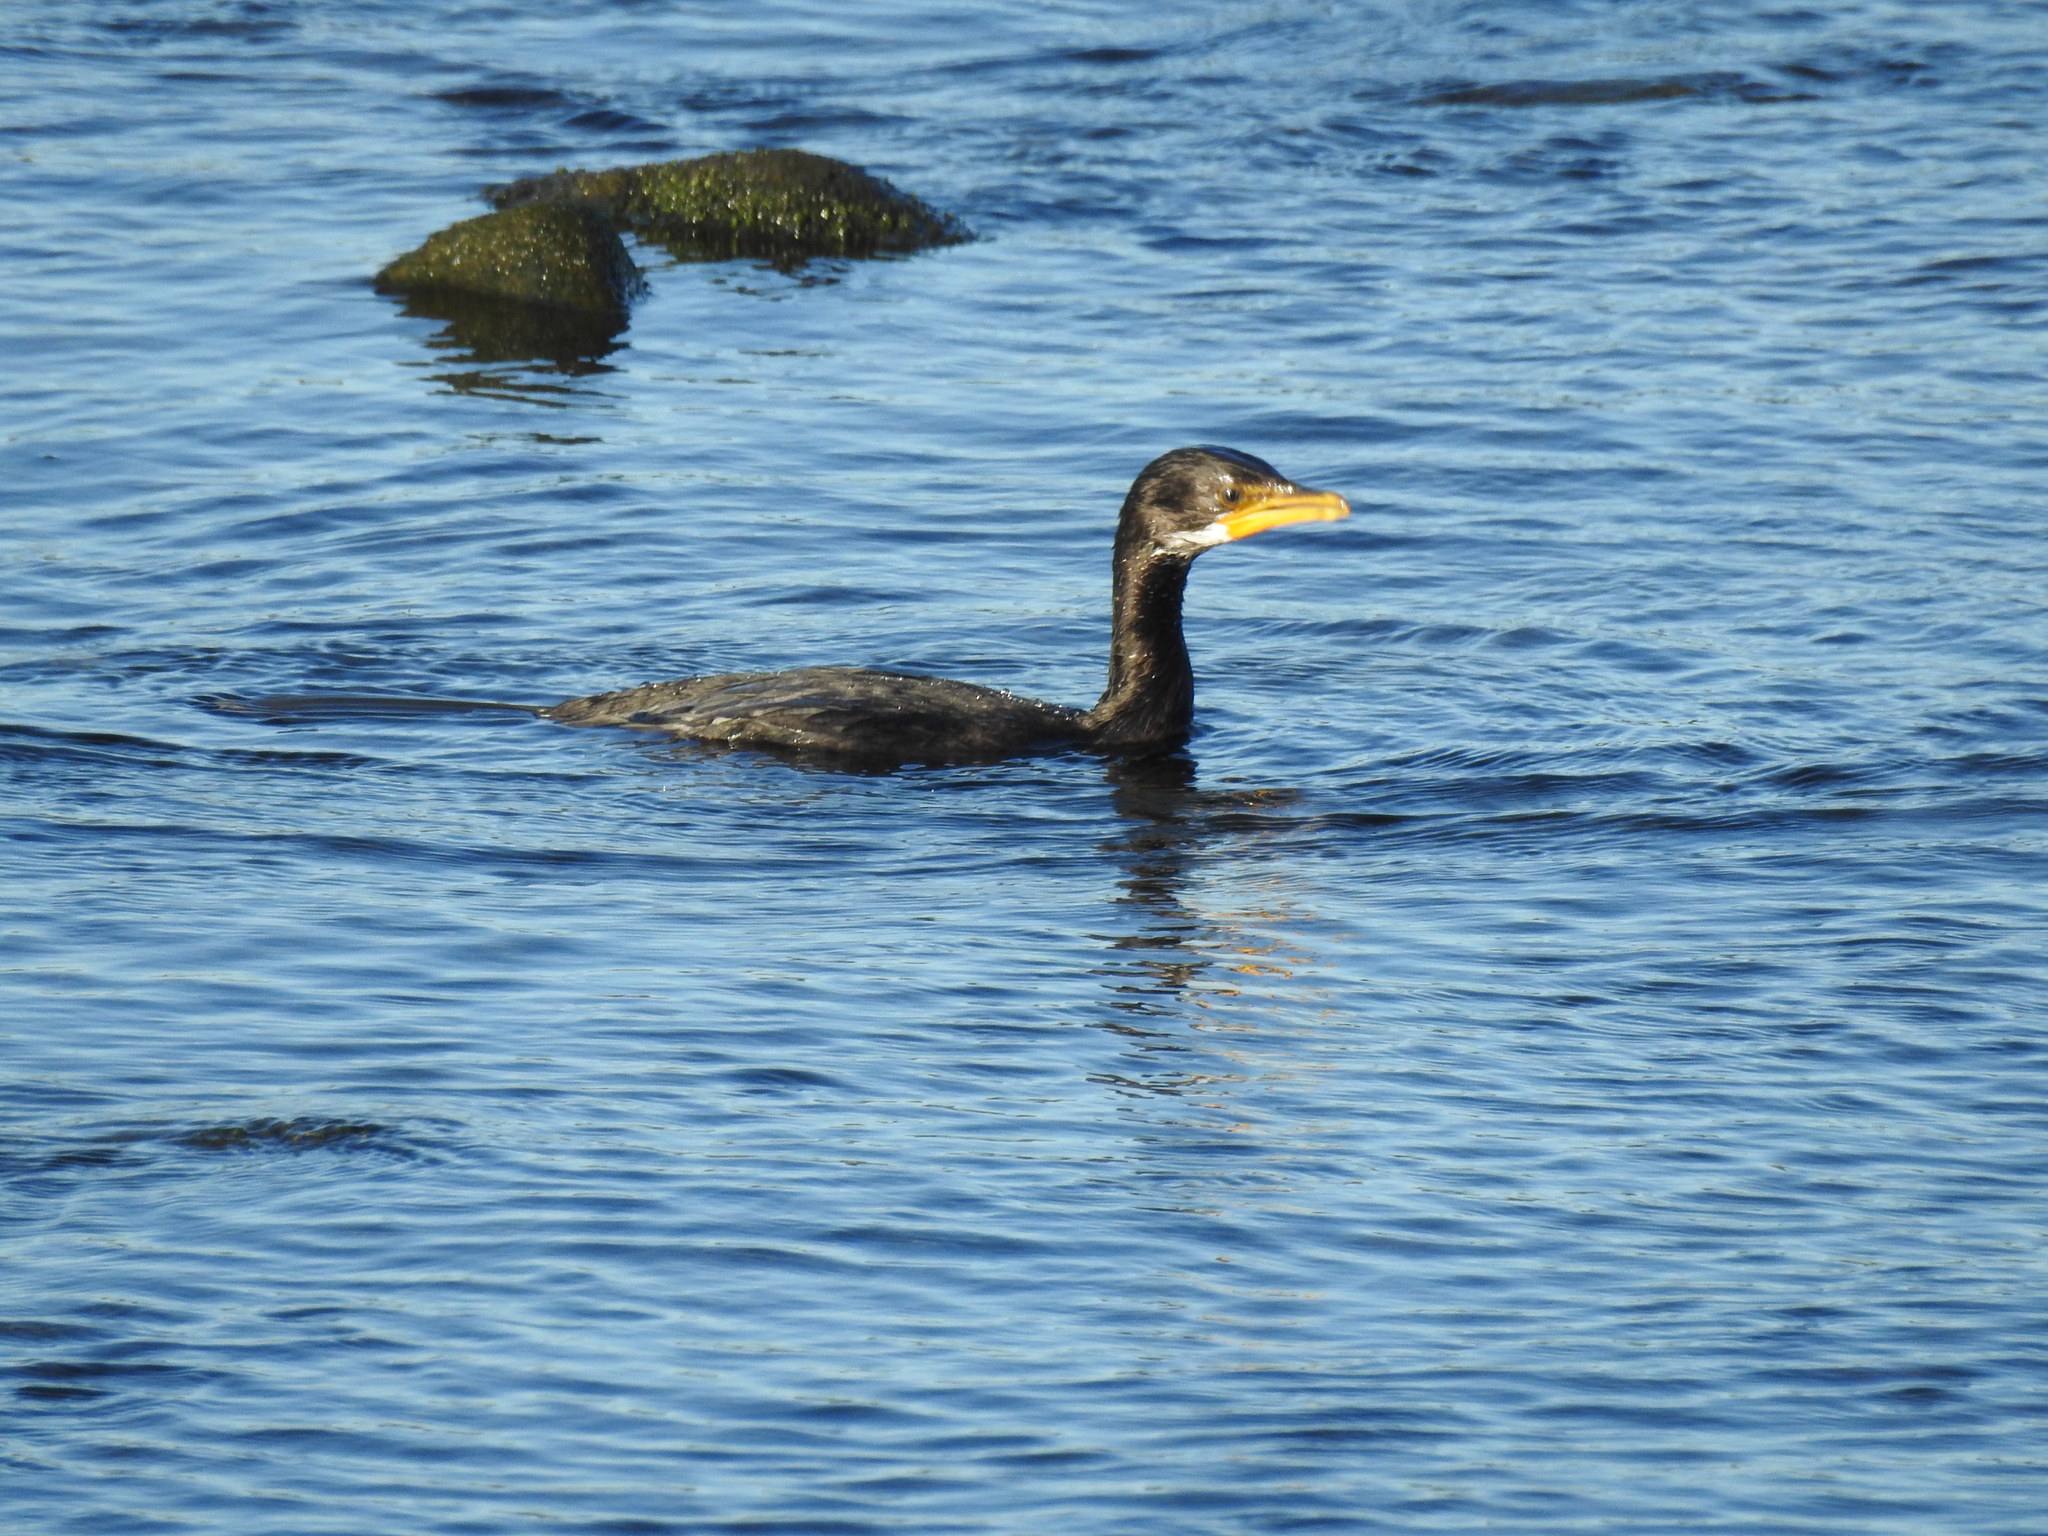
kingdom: Animalia
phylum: Chordata
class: Aves
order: Suliformes
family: Phalacrocoracidae
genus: Microcarbo
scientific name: Microcarbo melanoleucos
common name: Little pied cormorant
